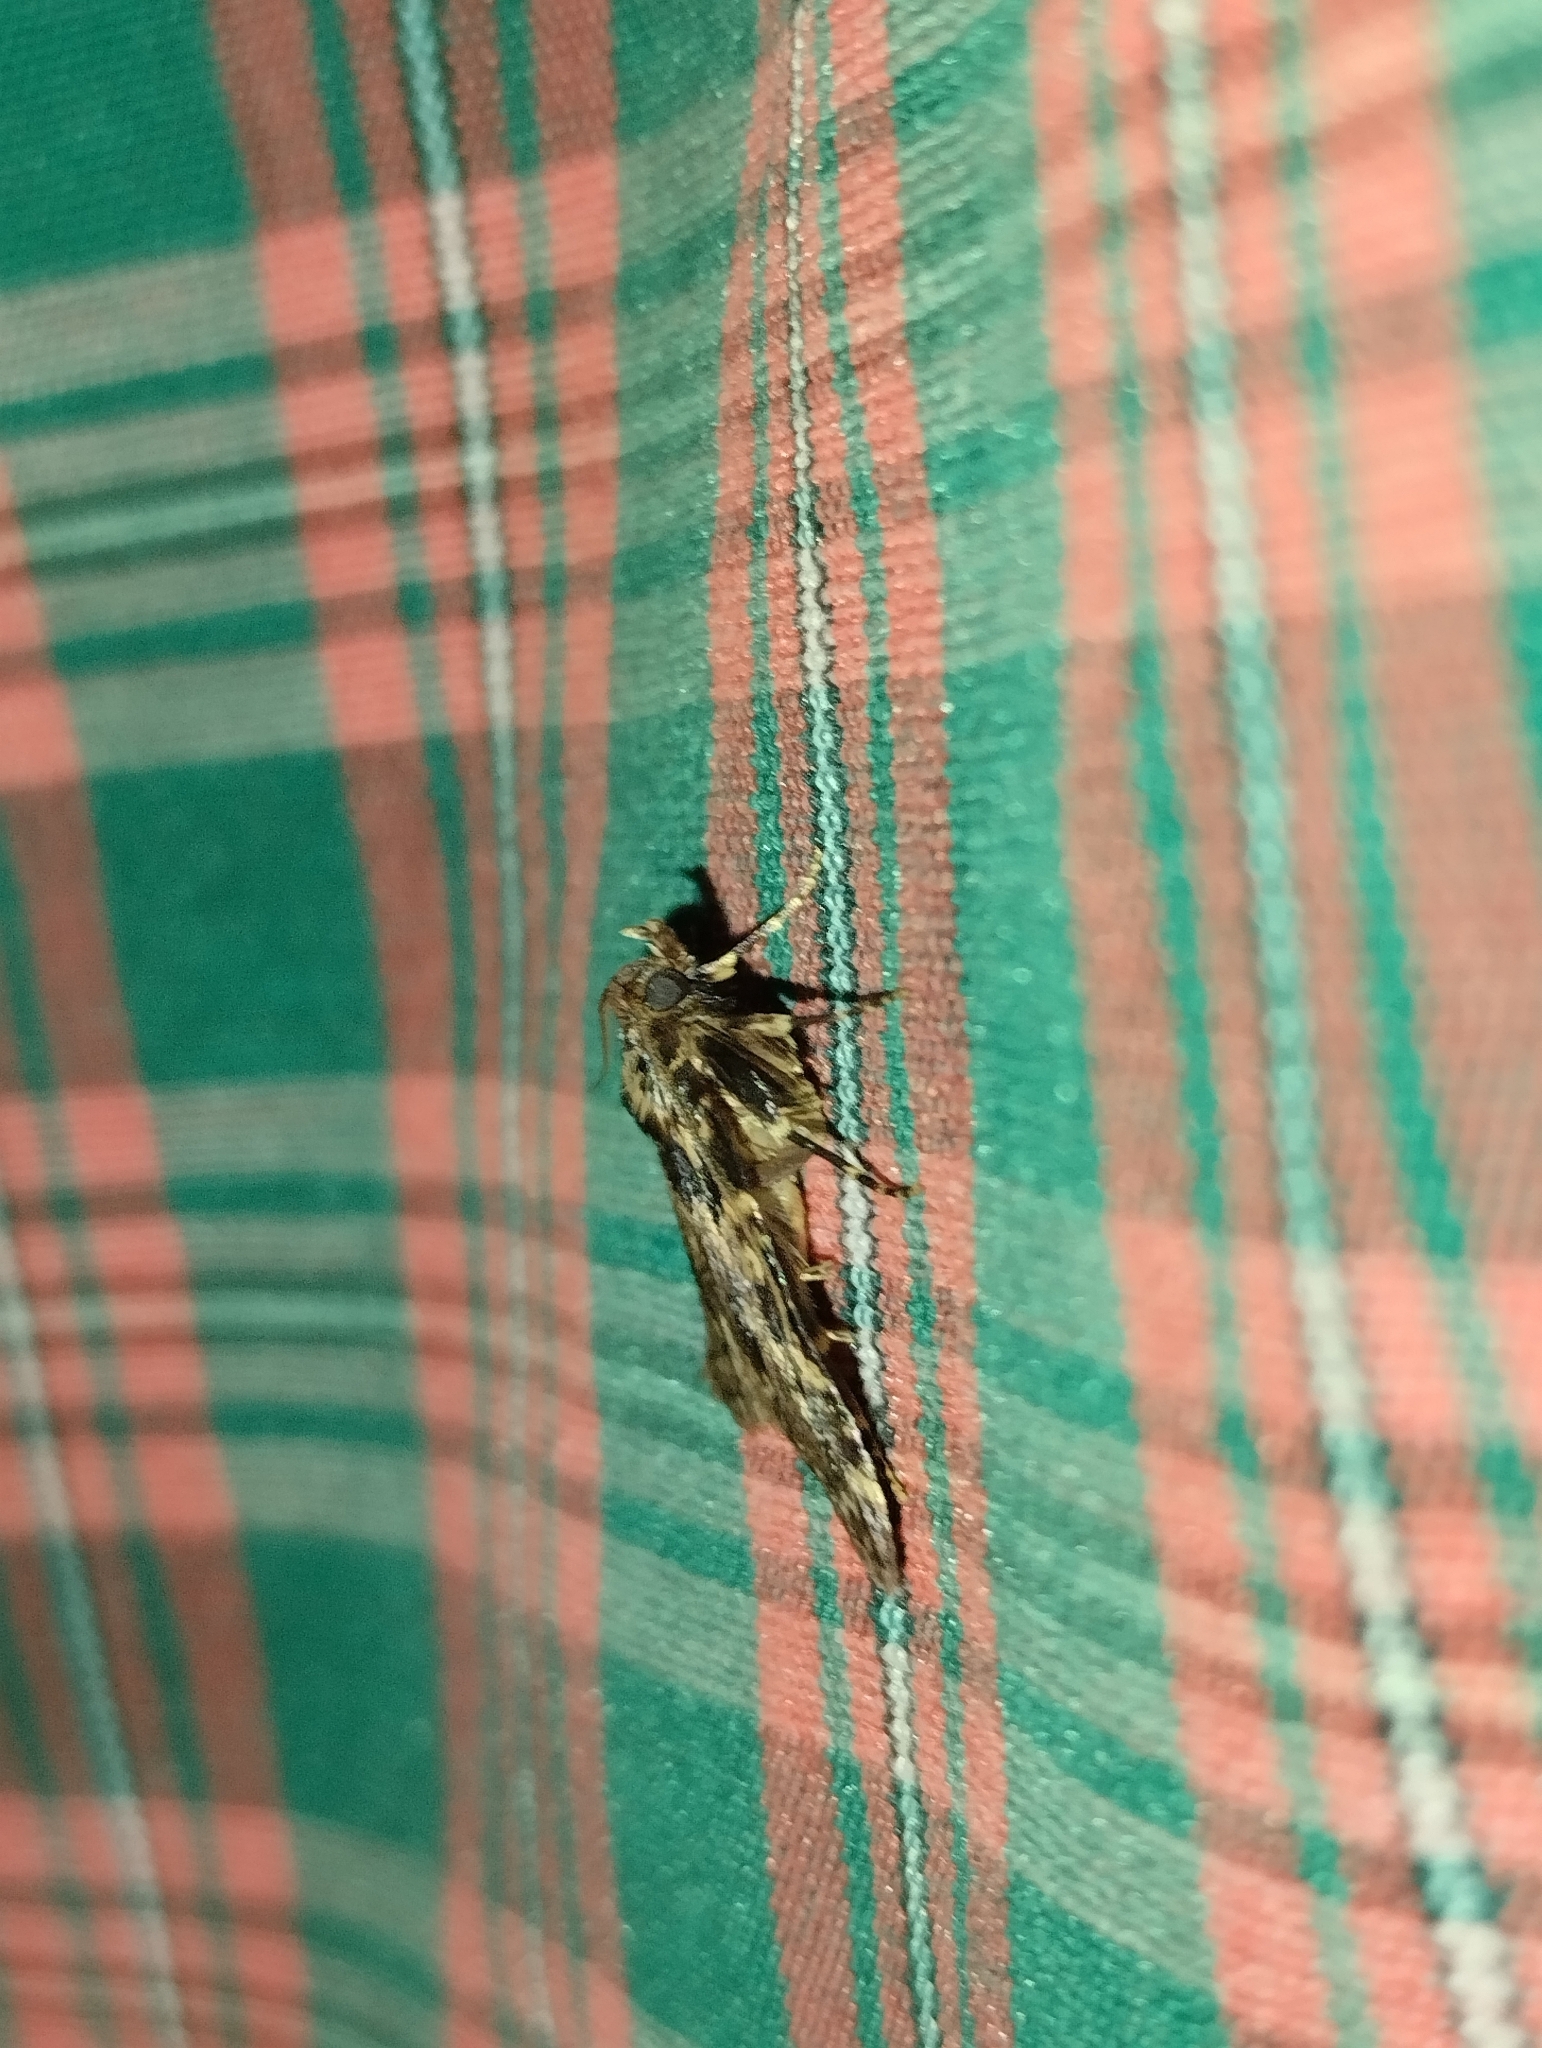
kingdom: Animalia
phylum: Arthropoda
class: Insecta
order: Lepidoptera
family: Pyralidae
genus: Aglossa
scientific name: Aglossa caprealis
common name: Small tabby
